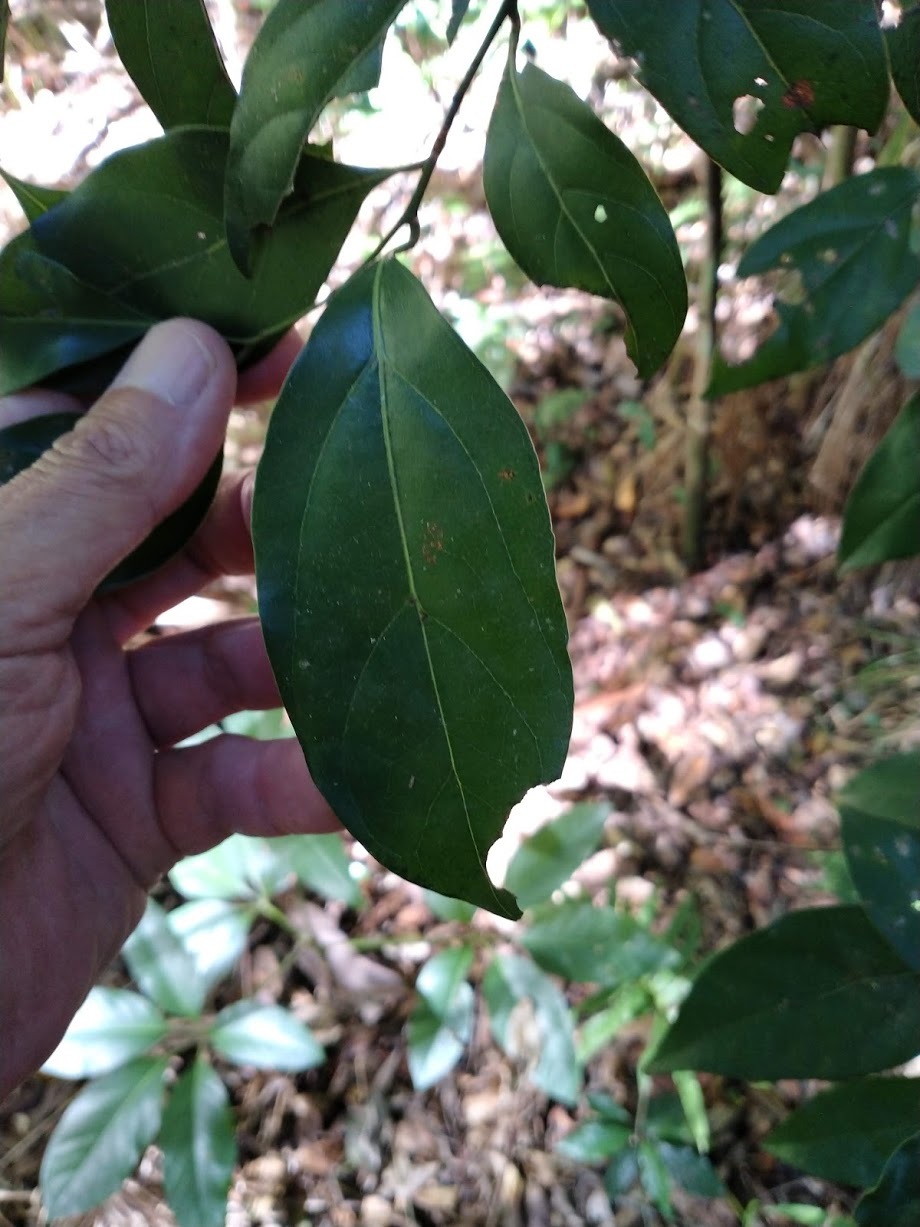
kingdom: Plantae
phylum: Tracheophyta
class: Magnoliopsida
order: Laurales
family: Lauraceae
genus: Endiandra
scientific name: Endiandra discolor
